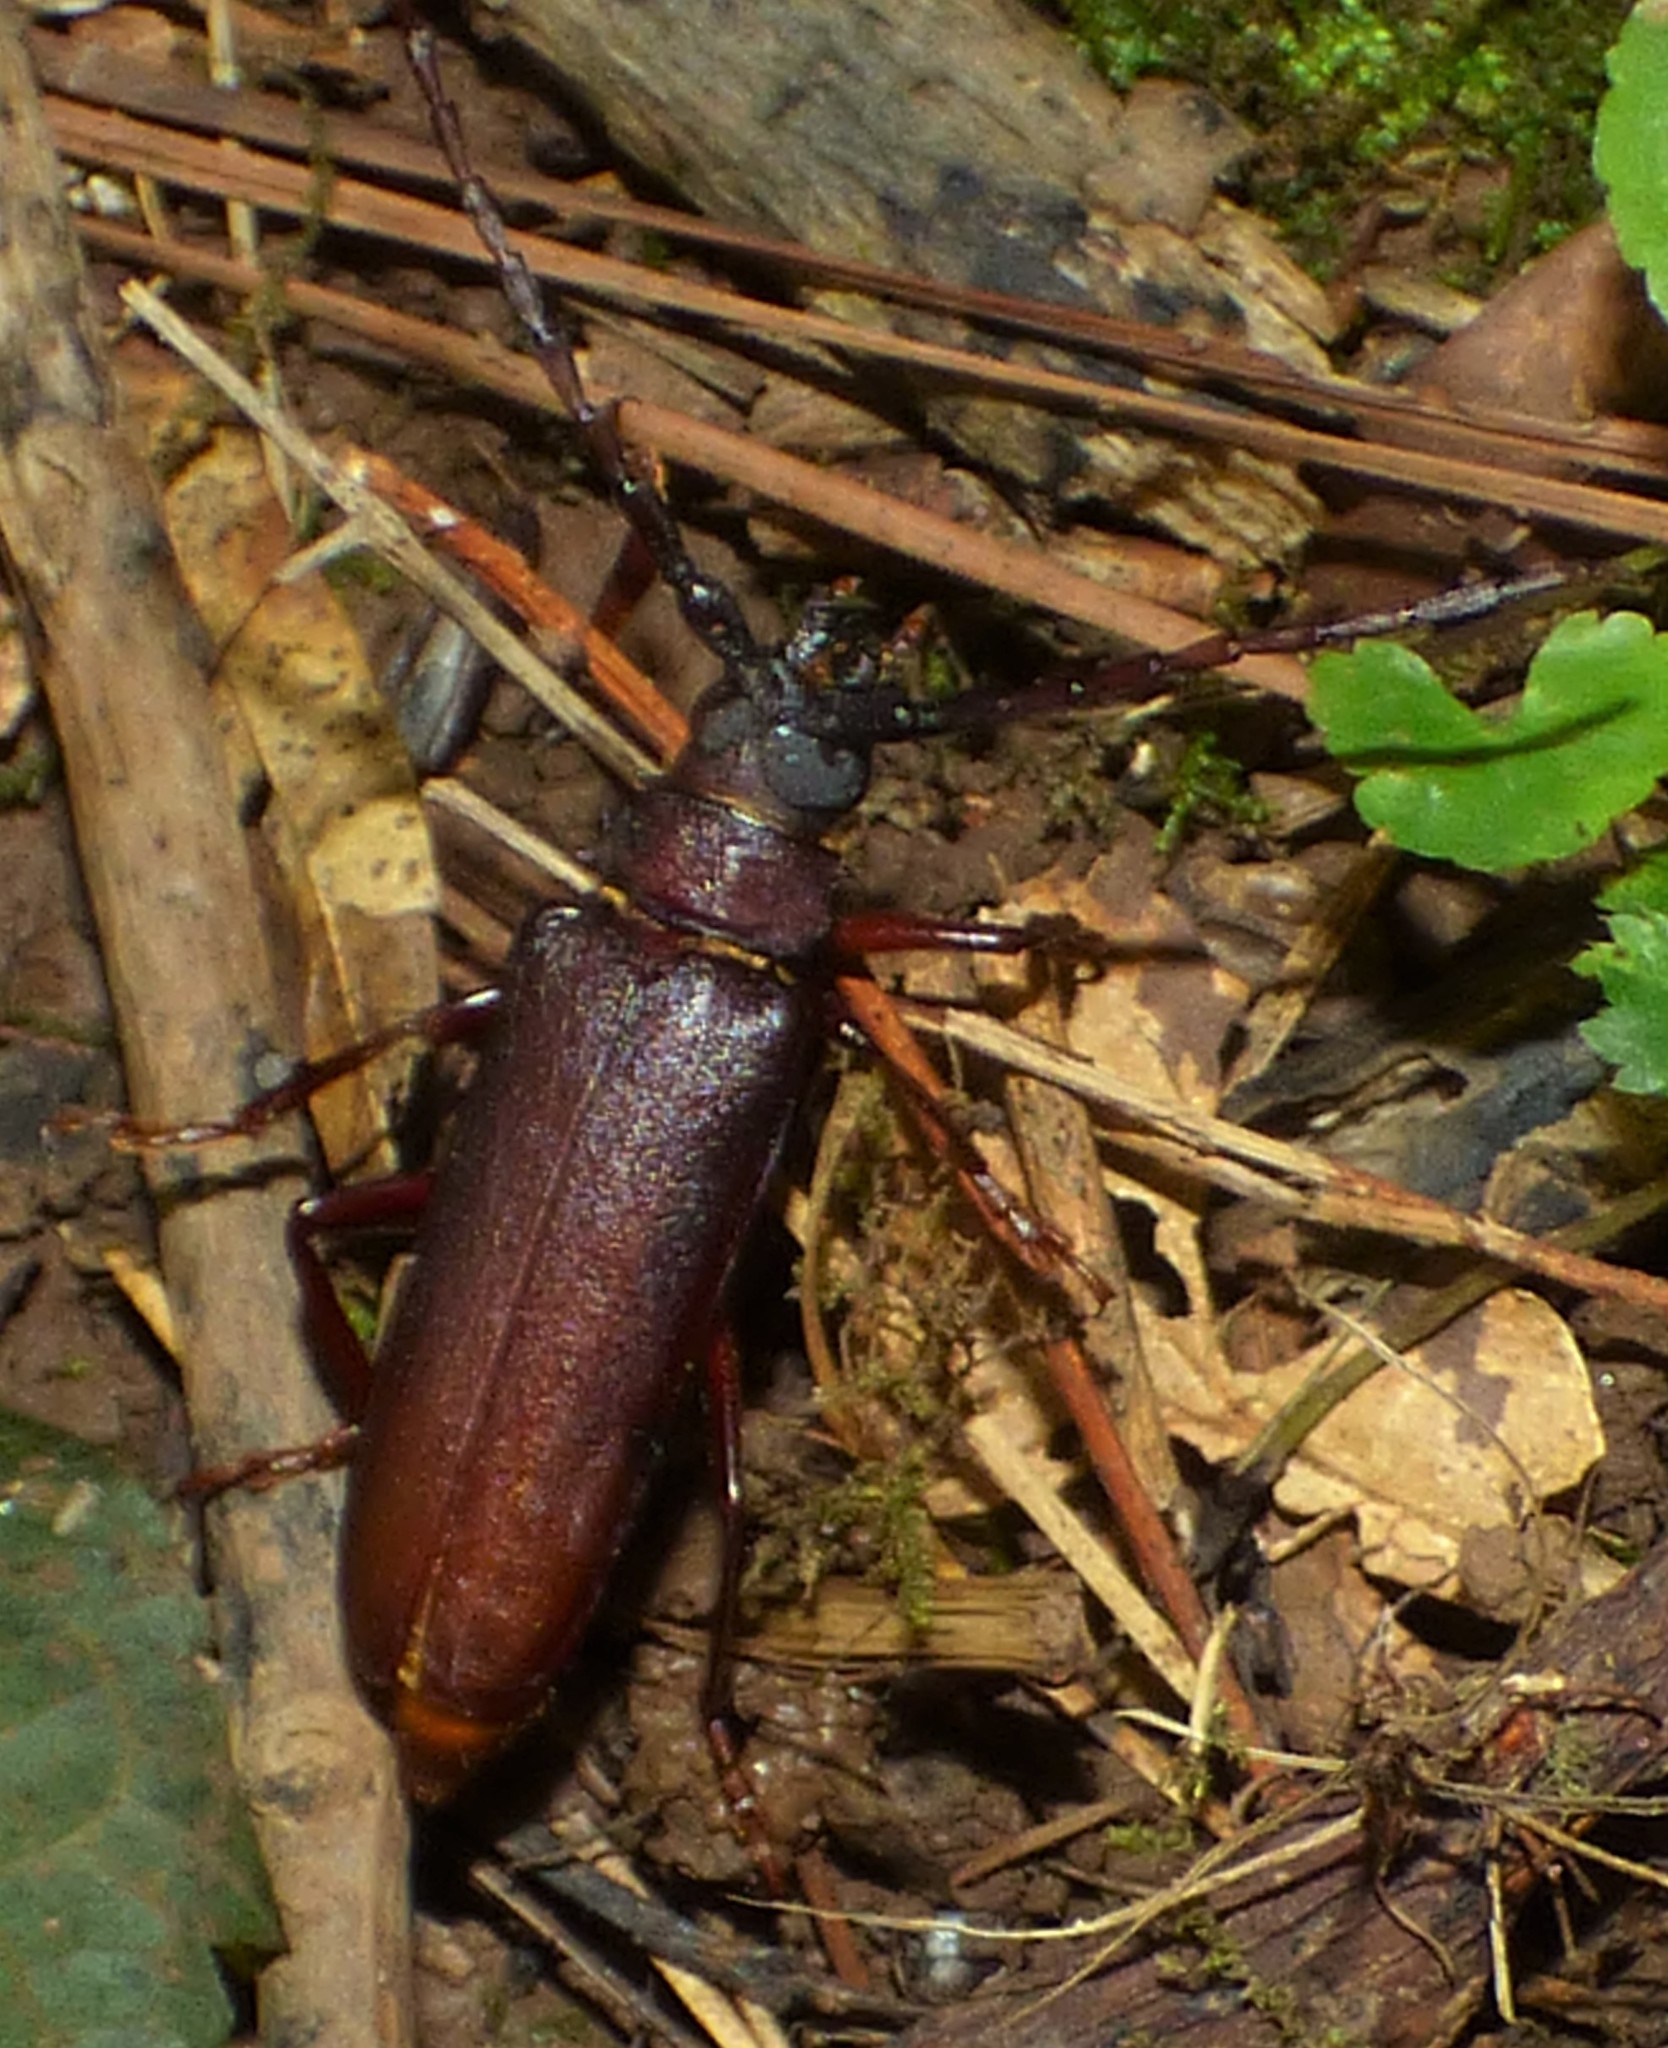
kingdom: Animalia
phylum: Arthropoda
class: Insecta
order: Coleoptera
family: Cerambycidae
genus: Orthosoma
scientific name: Orthosoma brunneum
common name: Brown prionid beetle
